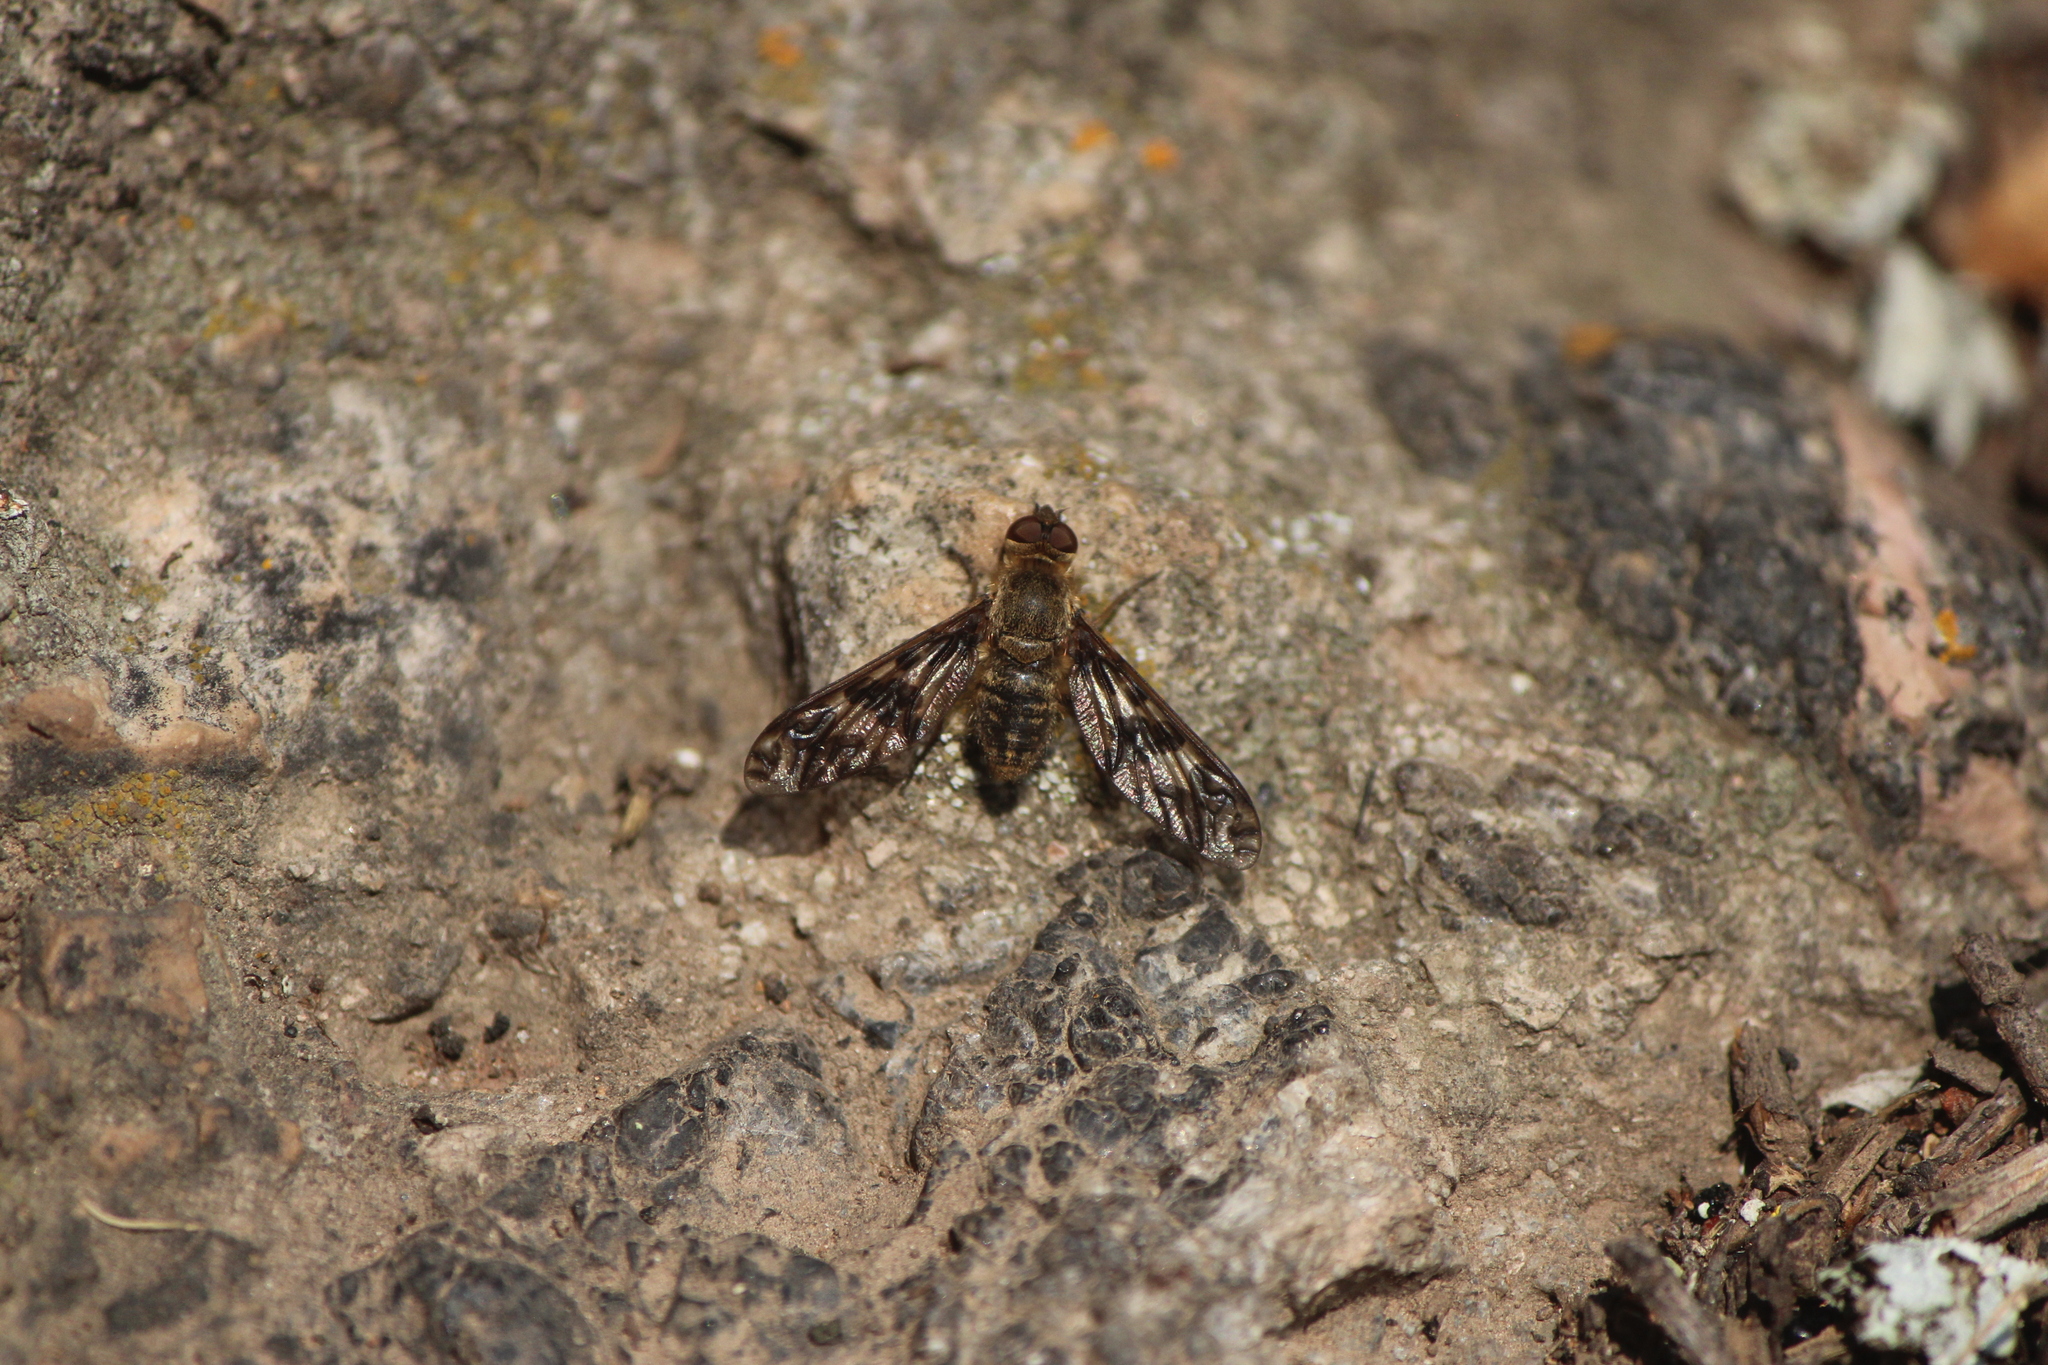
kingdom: Animalia
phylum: Arthropoda
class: Insecta
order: Diptera
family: Bombyliidae
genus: Dipalta
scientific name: Dipalta serpentina
